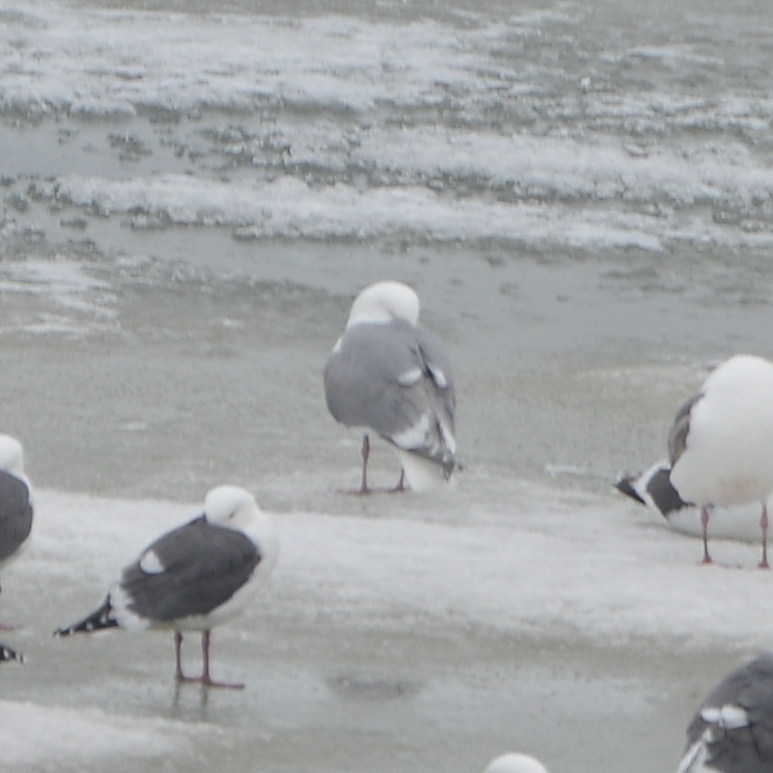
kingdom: Animalia
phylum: Chordata
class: Aves
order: Charadriiformes
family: Laridae
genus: Larus
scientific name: Larus glaucescens
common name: Glaucous-winged gull
